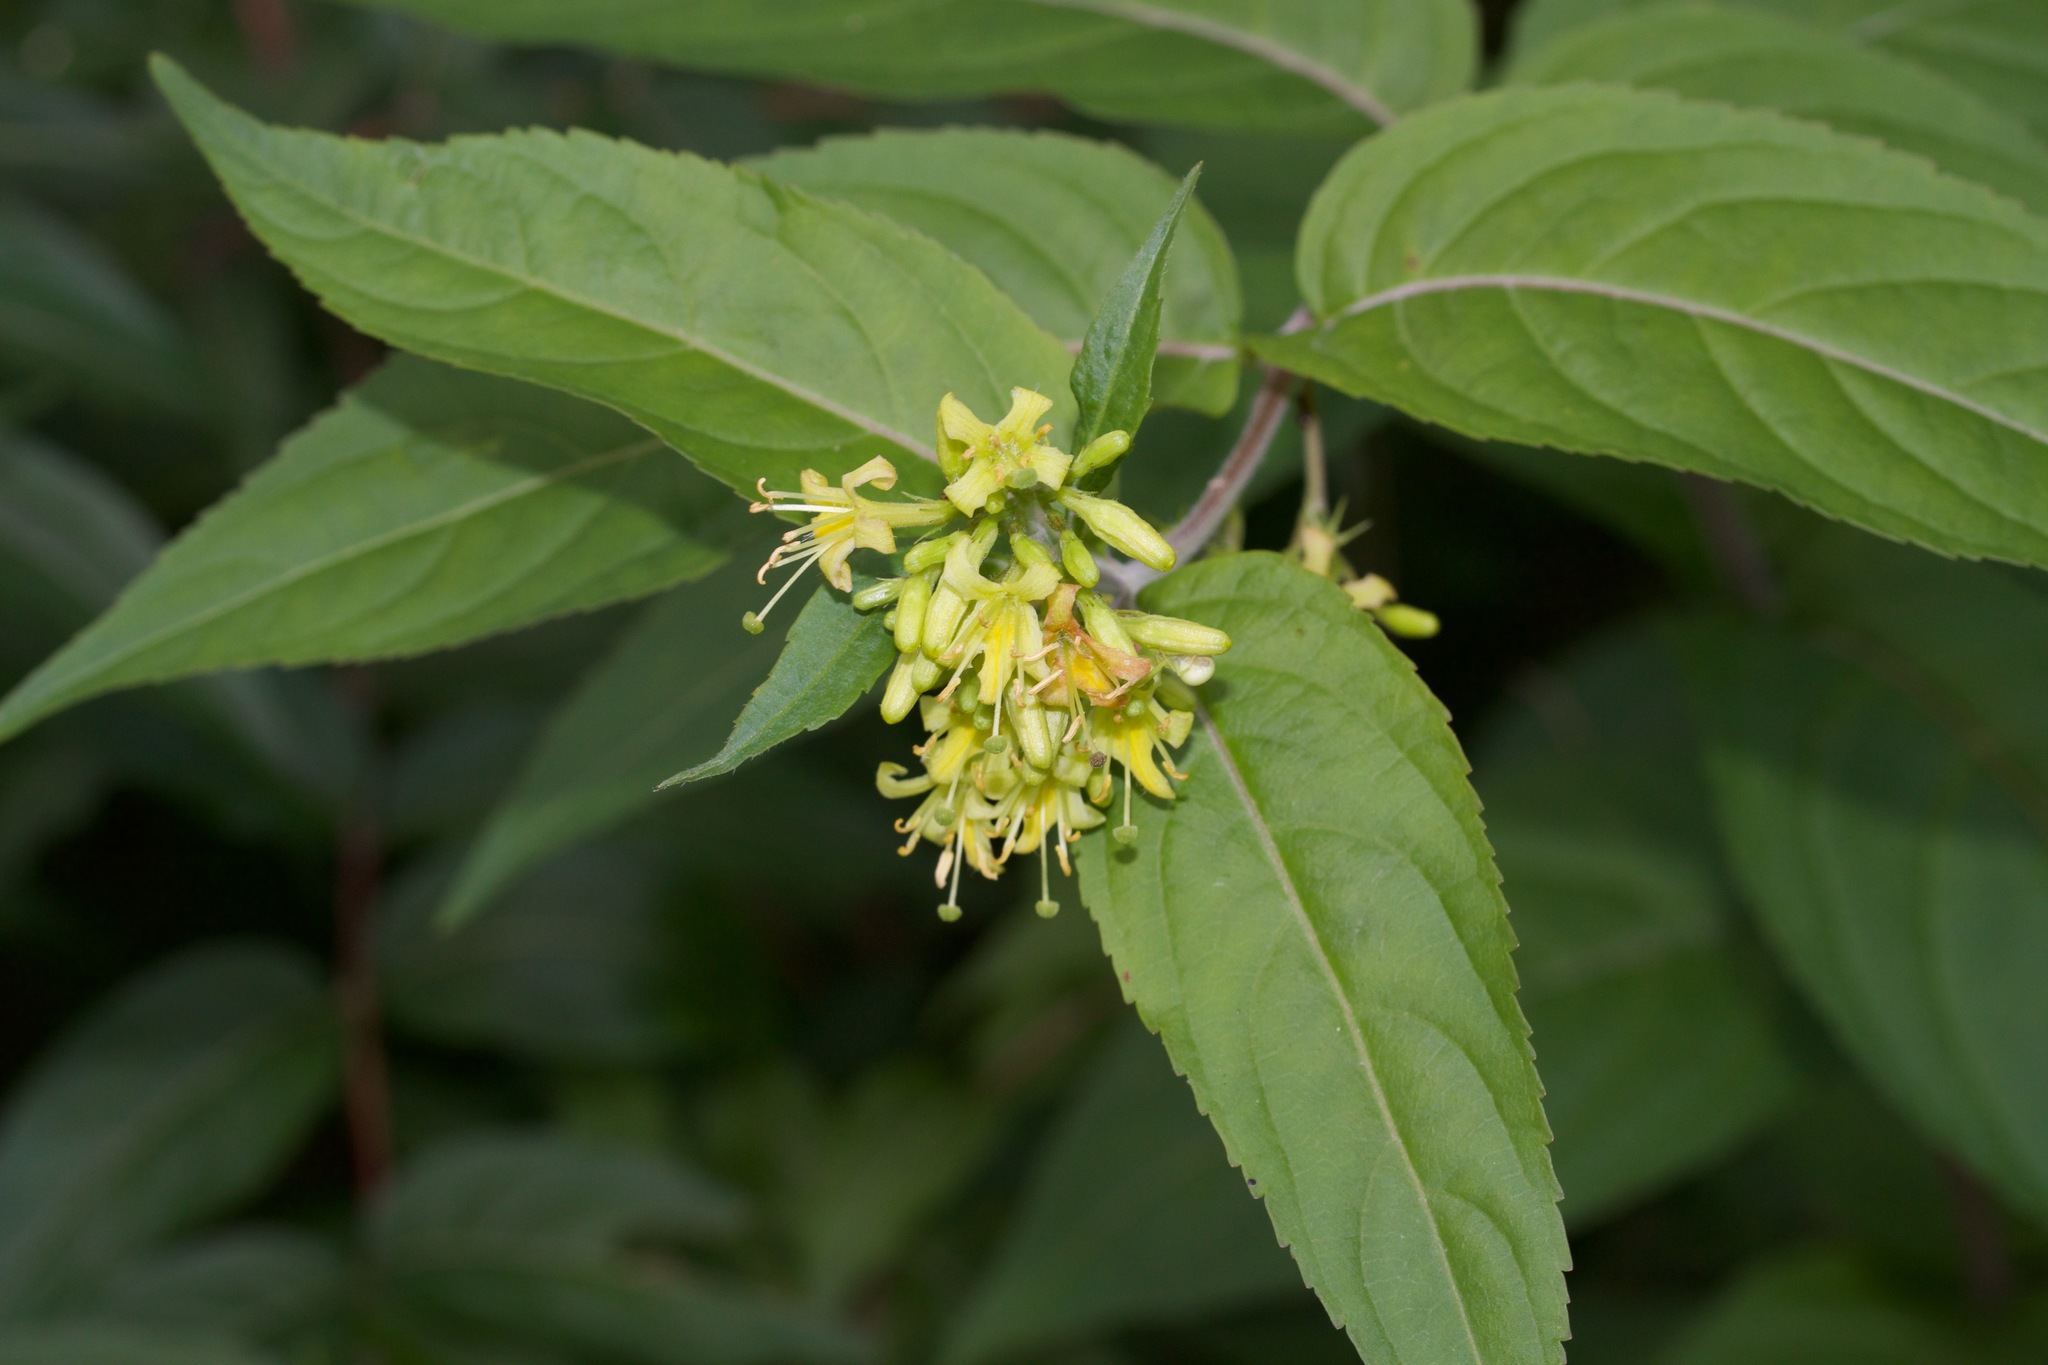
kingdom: Plantae
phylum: Tracheophyta
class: Magnoliopsida
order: Dipsacales
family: Caprifoliaceae
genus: Diervilla
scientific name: Diervilla lonicera
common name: Bush-honeysuckle
